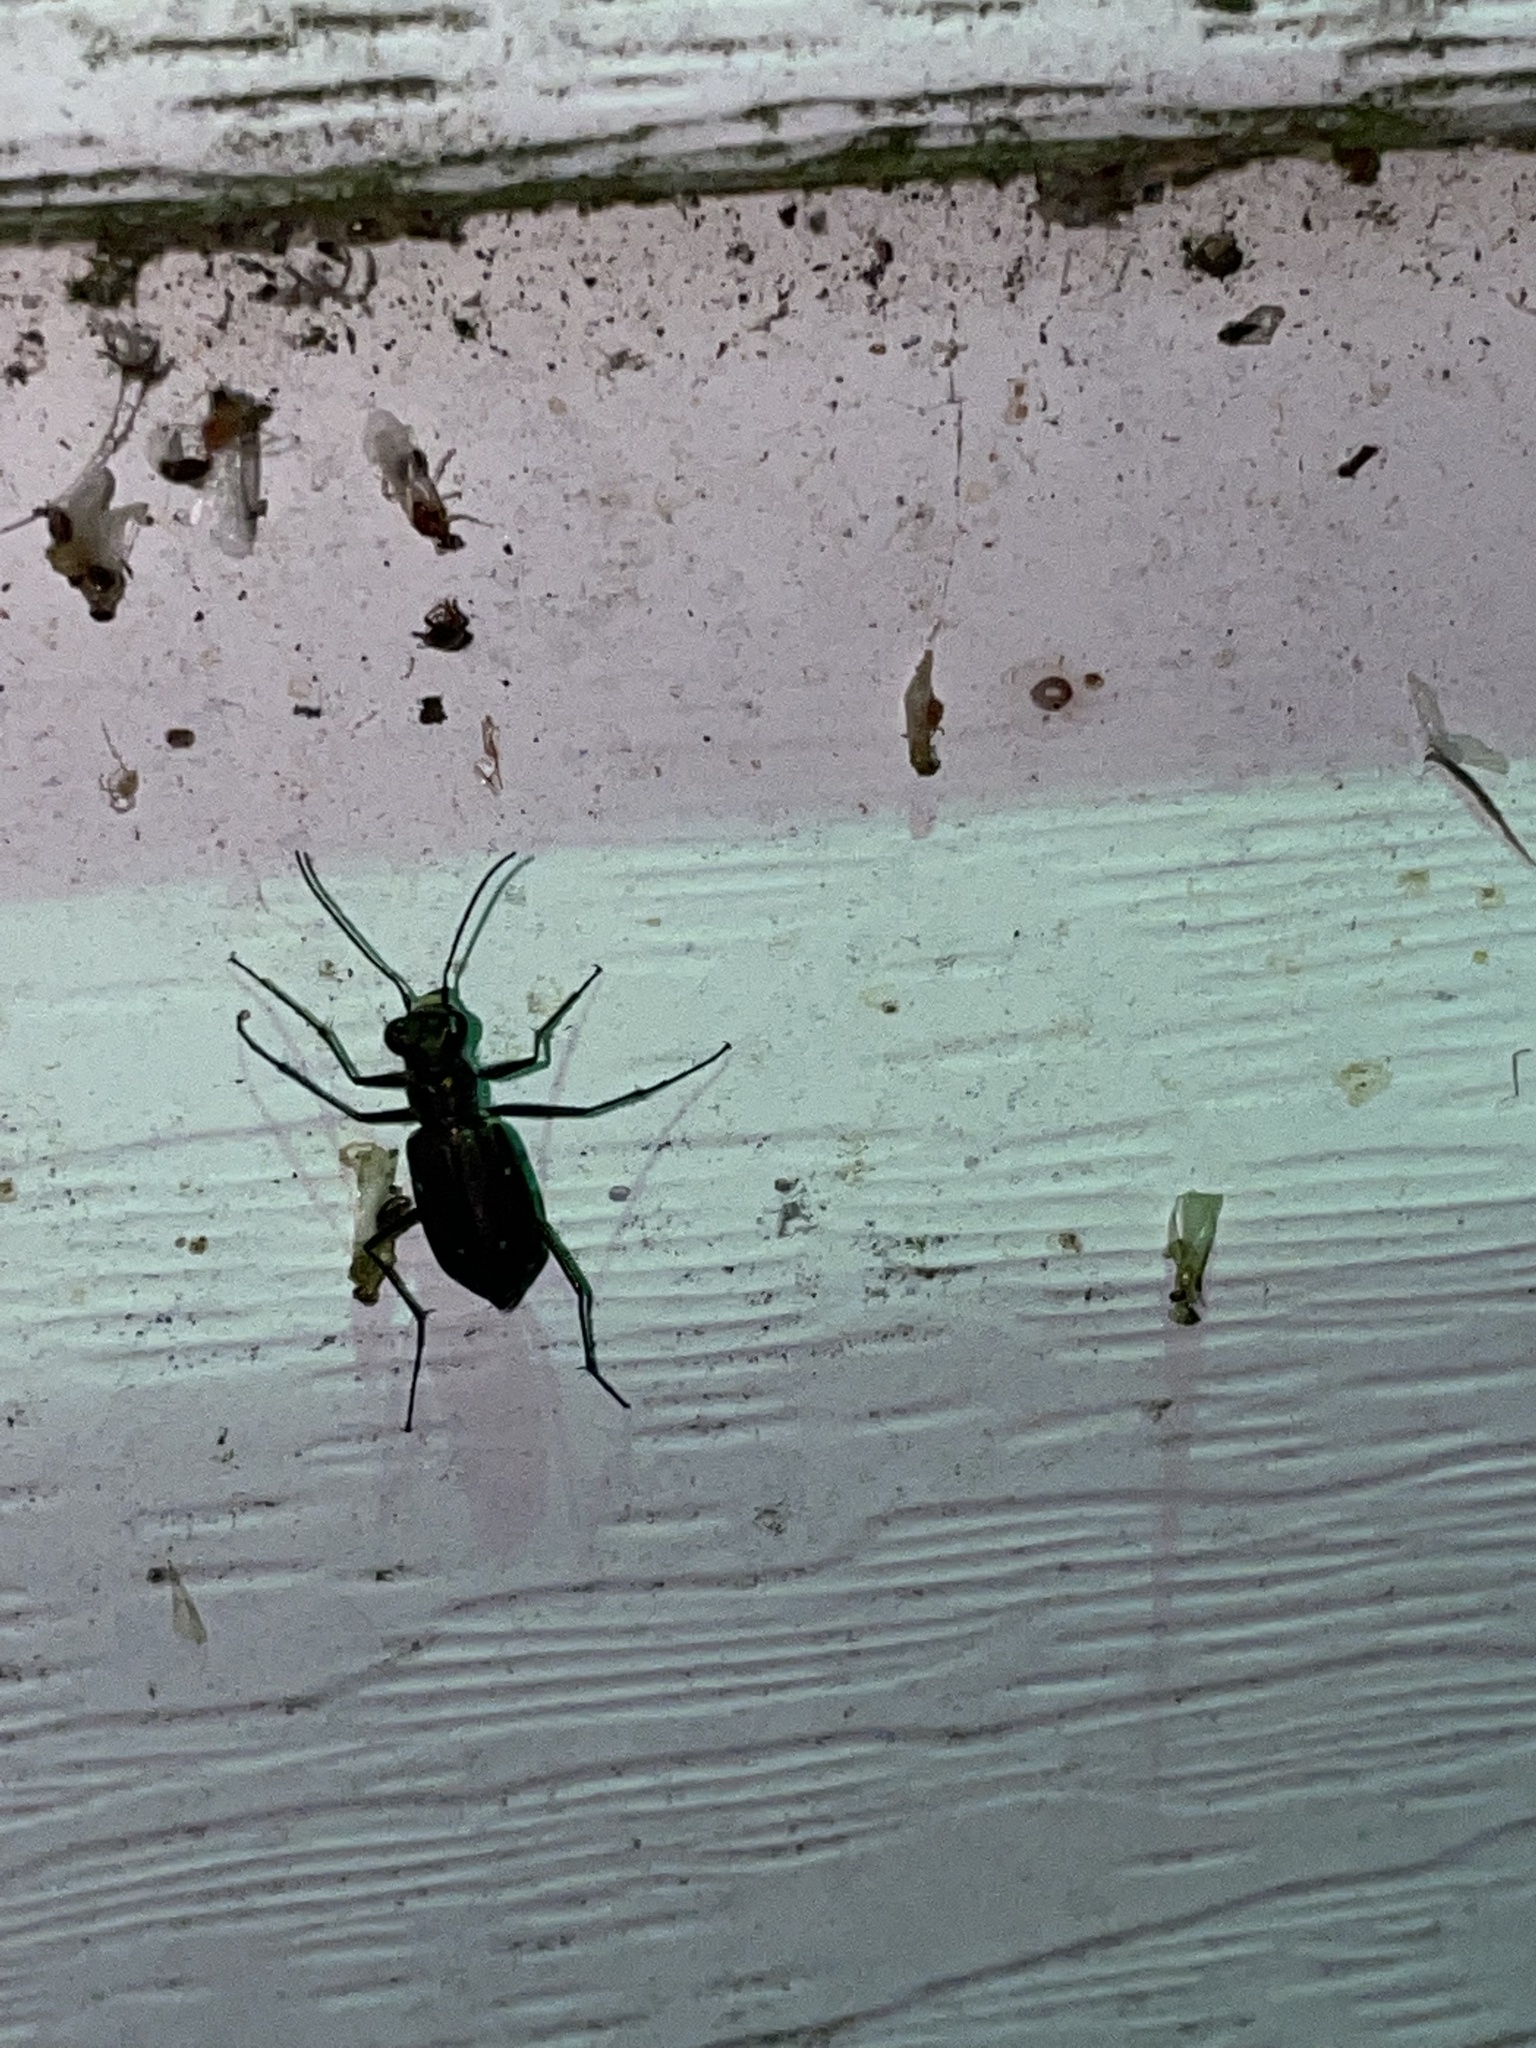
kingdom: Animalia
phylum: Arthropoda
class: Insecta
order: Coleoptera
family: Carabidae
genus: Cicindela
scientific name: Cicindela punctulata
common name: Punctured tiger beetle
